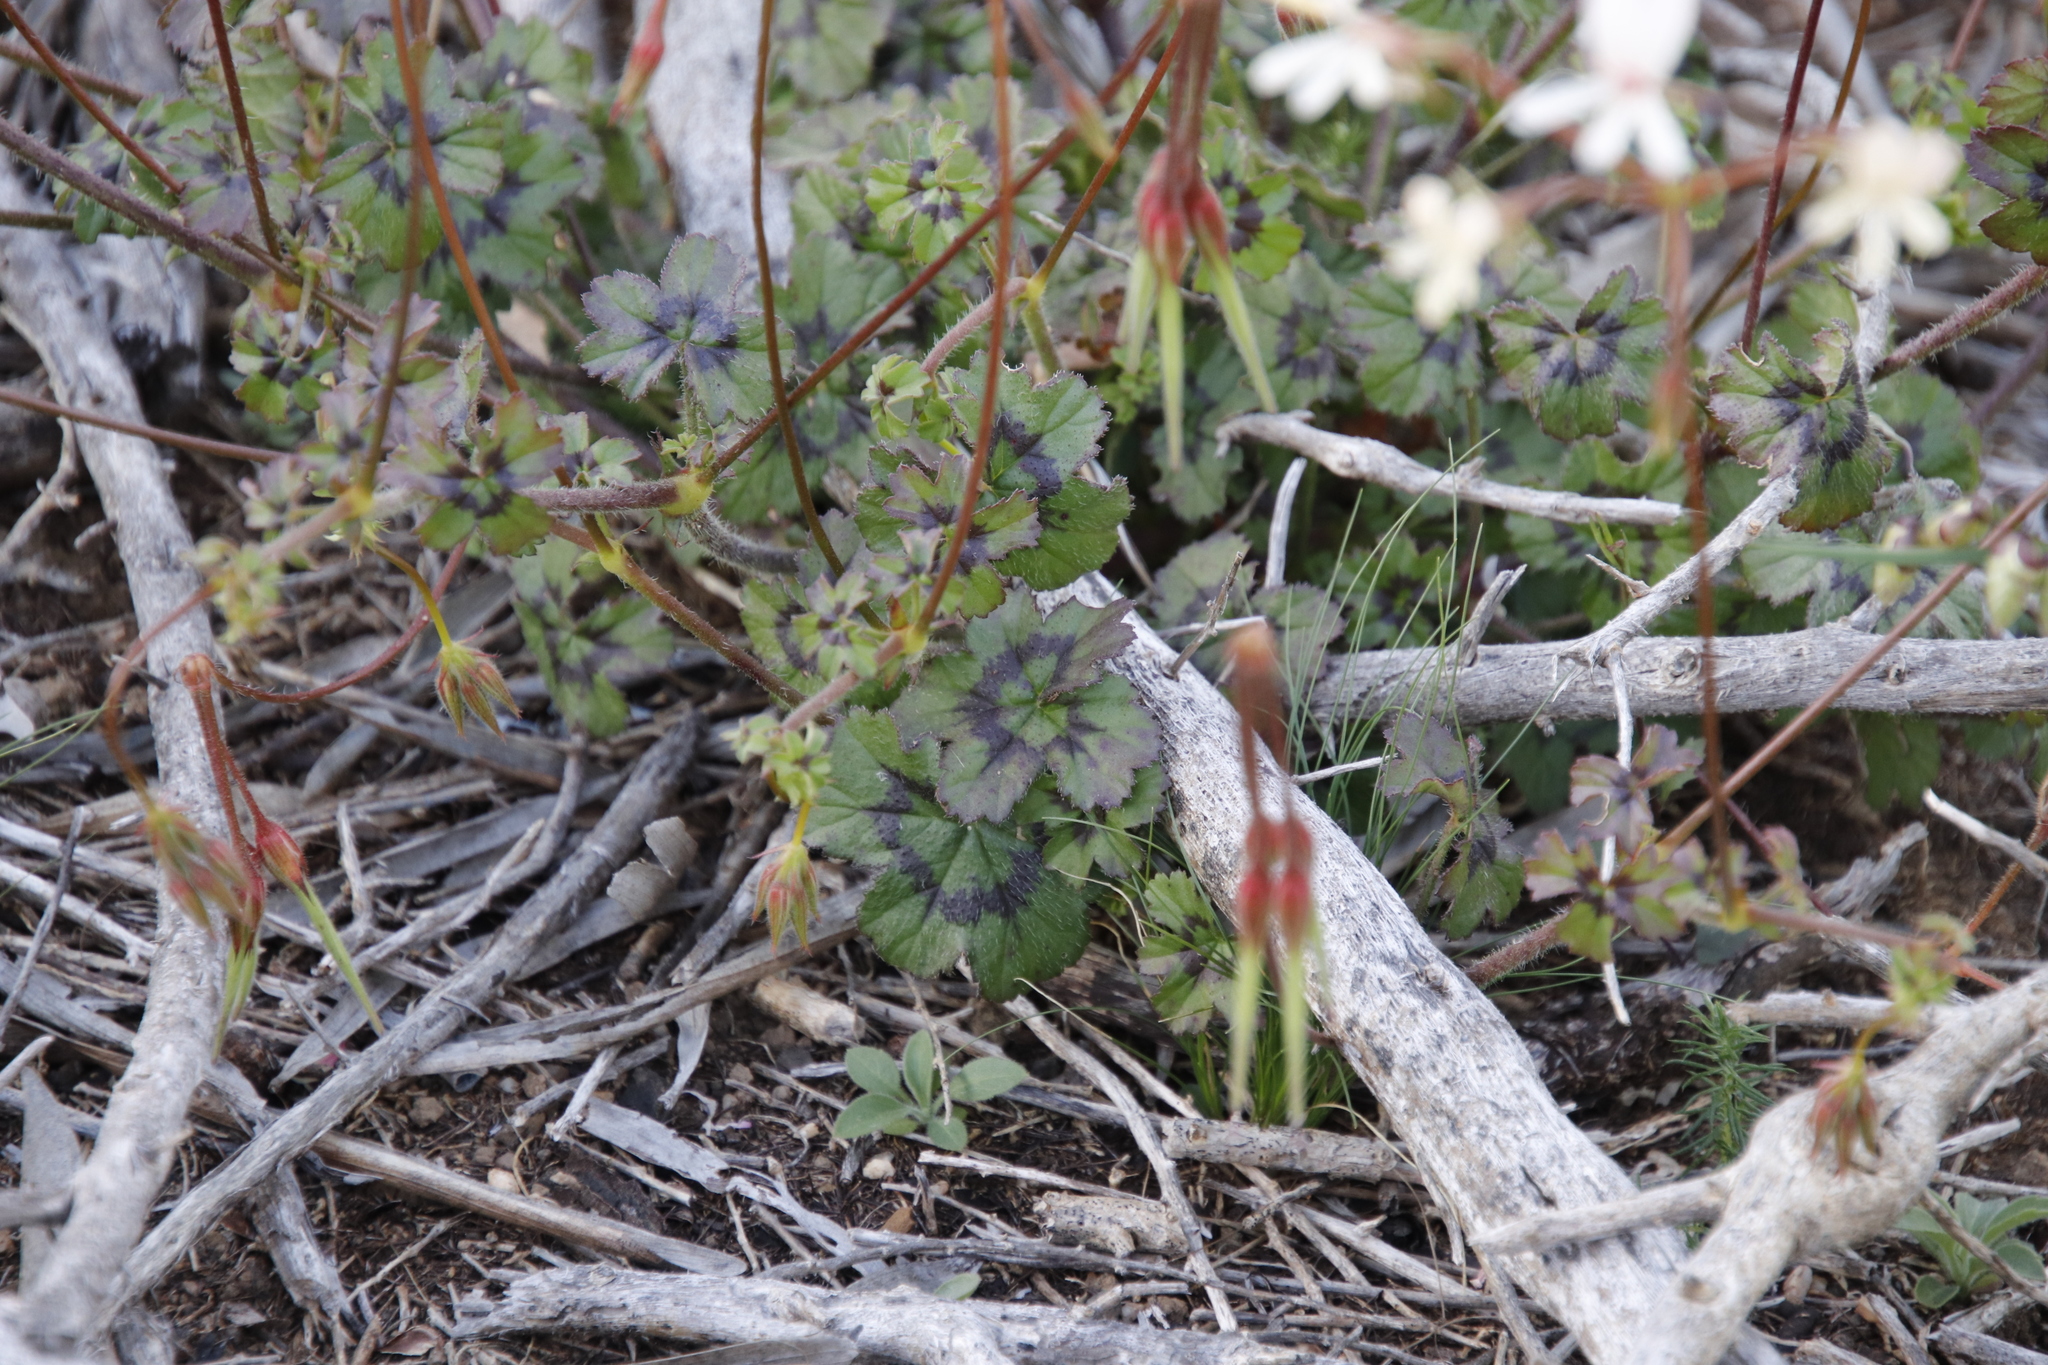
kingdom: Plantae
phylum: Tracheophyta
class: Magnoliopsida
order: Geraniales
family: Geraniaceae
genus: Pelargonium
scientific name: Pelargonium elongatum
